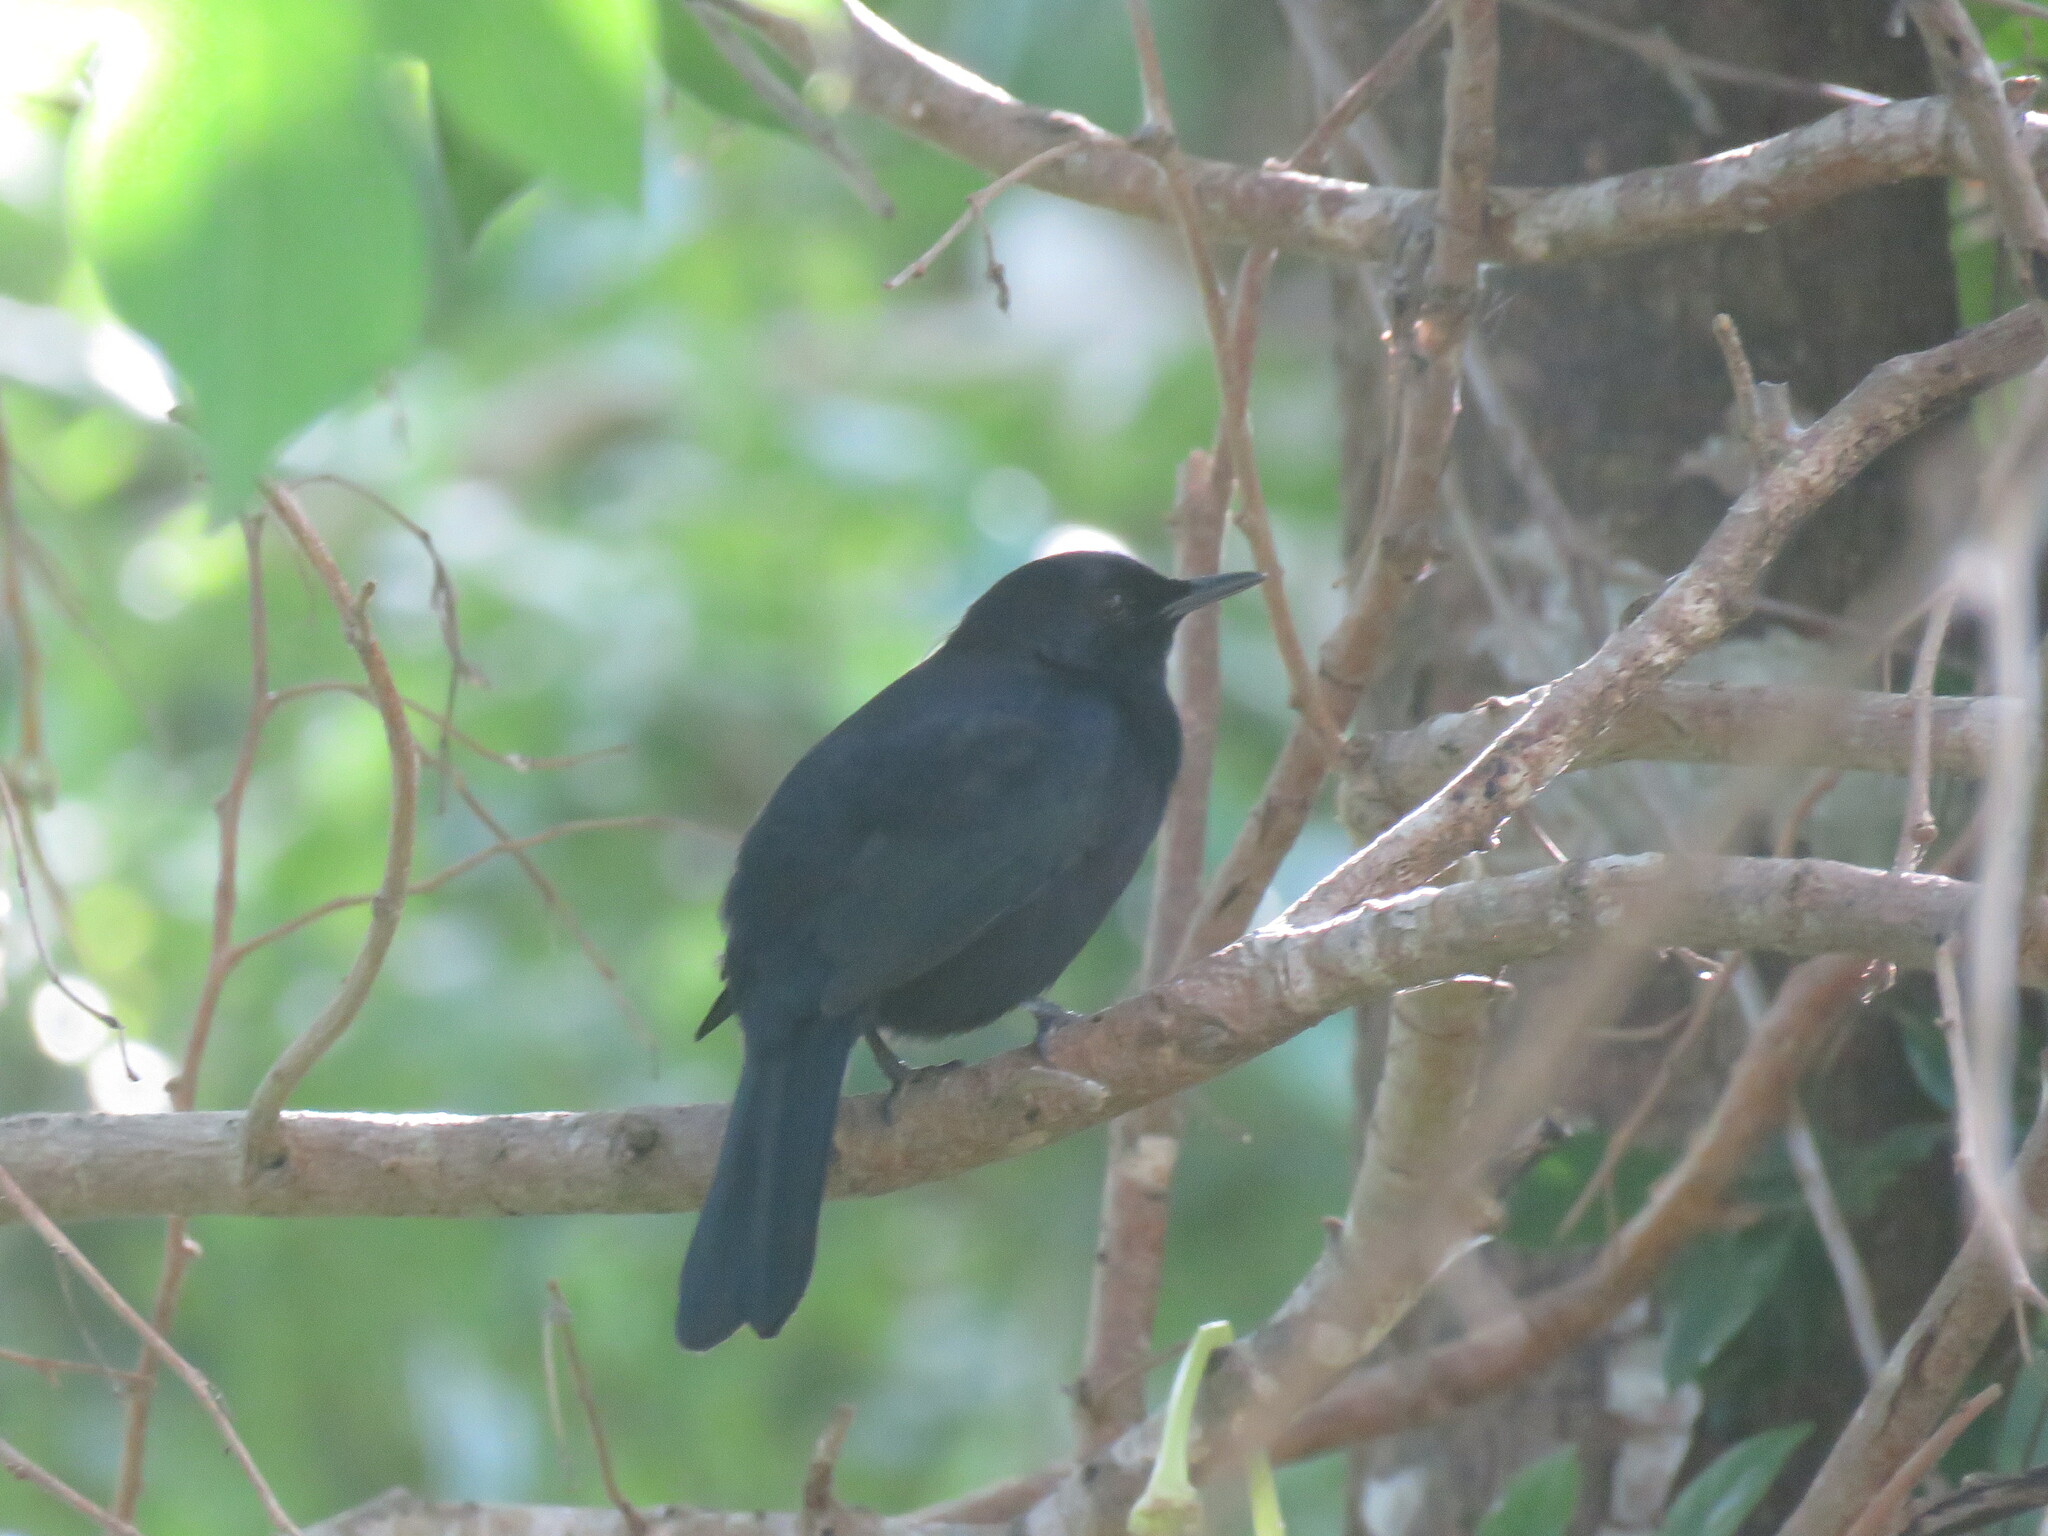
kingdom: Animalia
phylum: Chordata
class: Aves
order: Passeriformes
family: Mimidae
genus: Melanoptila
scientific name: Melanoptila glabrirostris
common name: Black catbird
